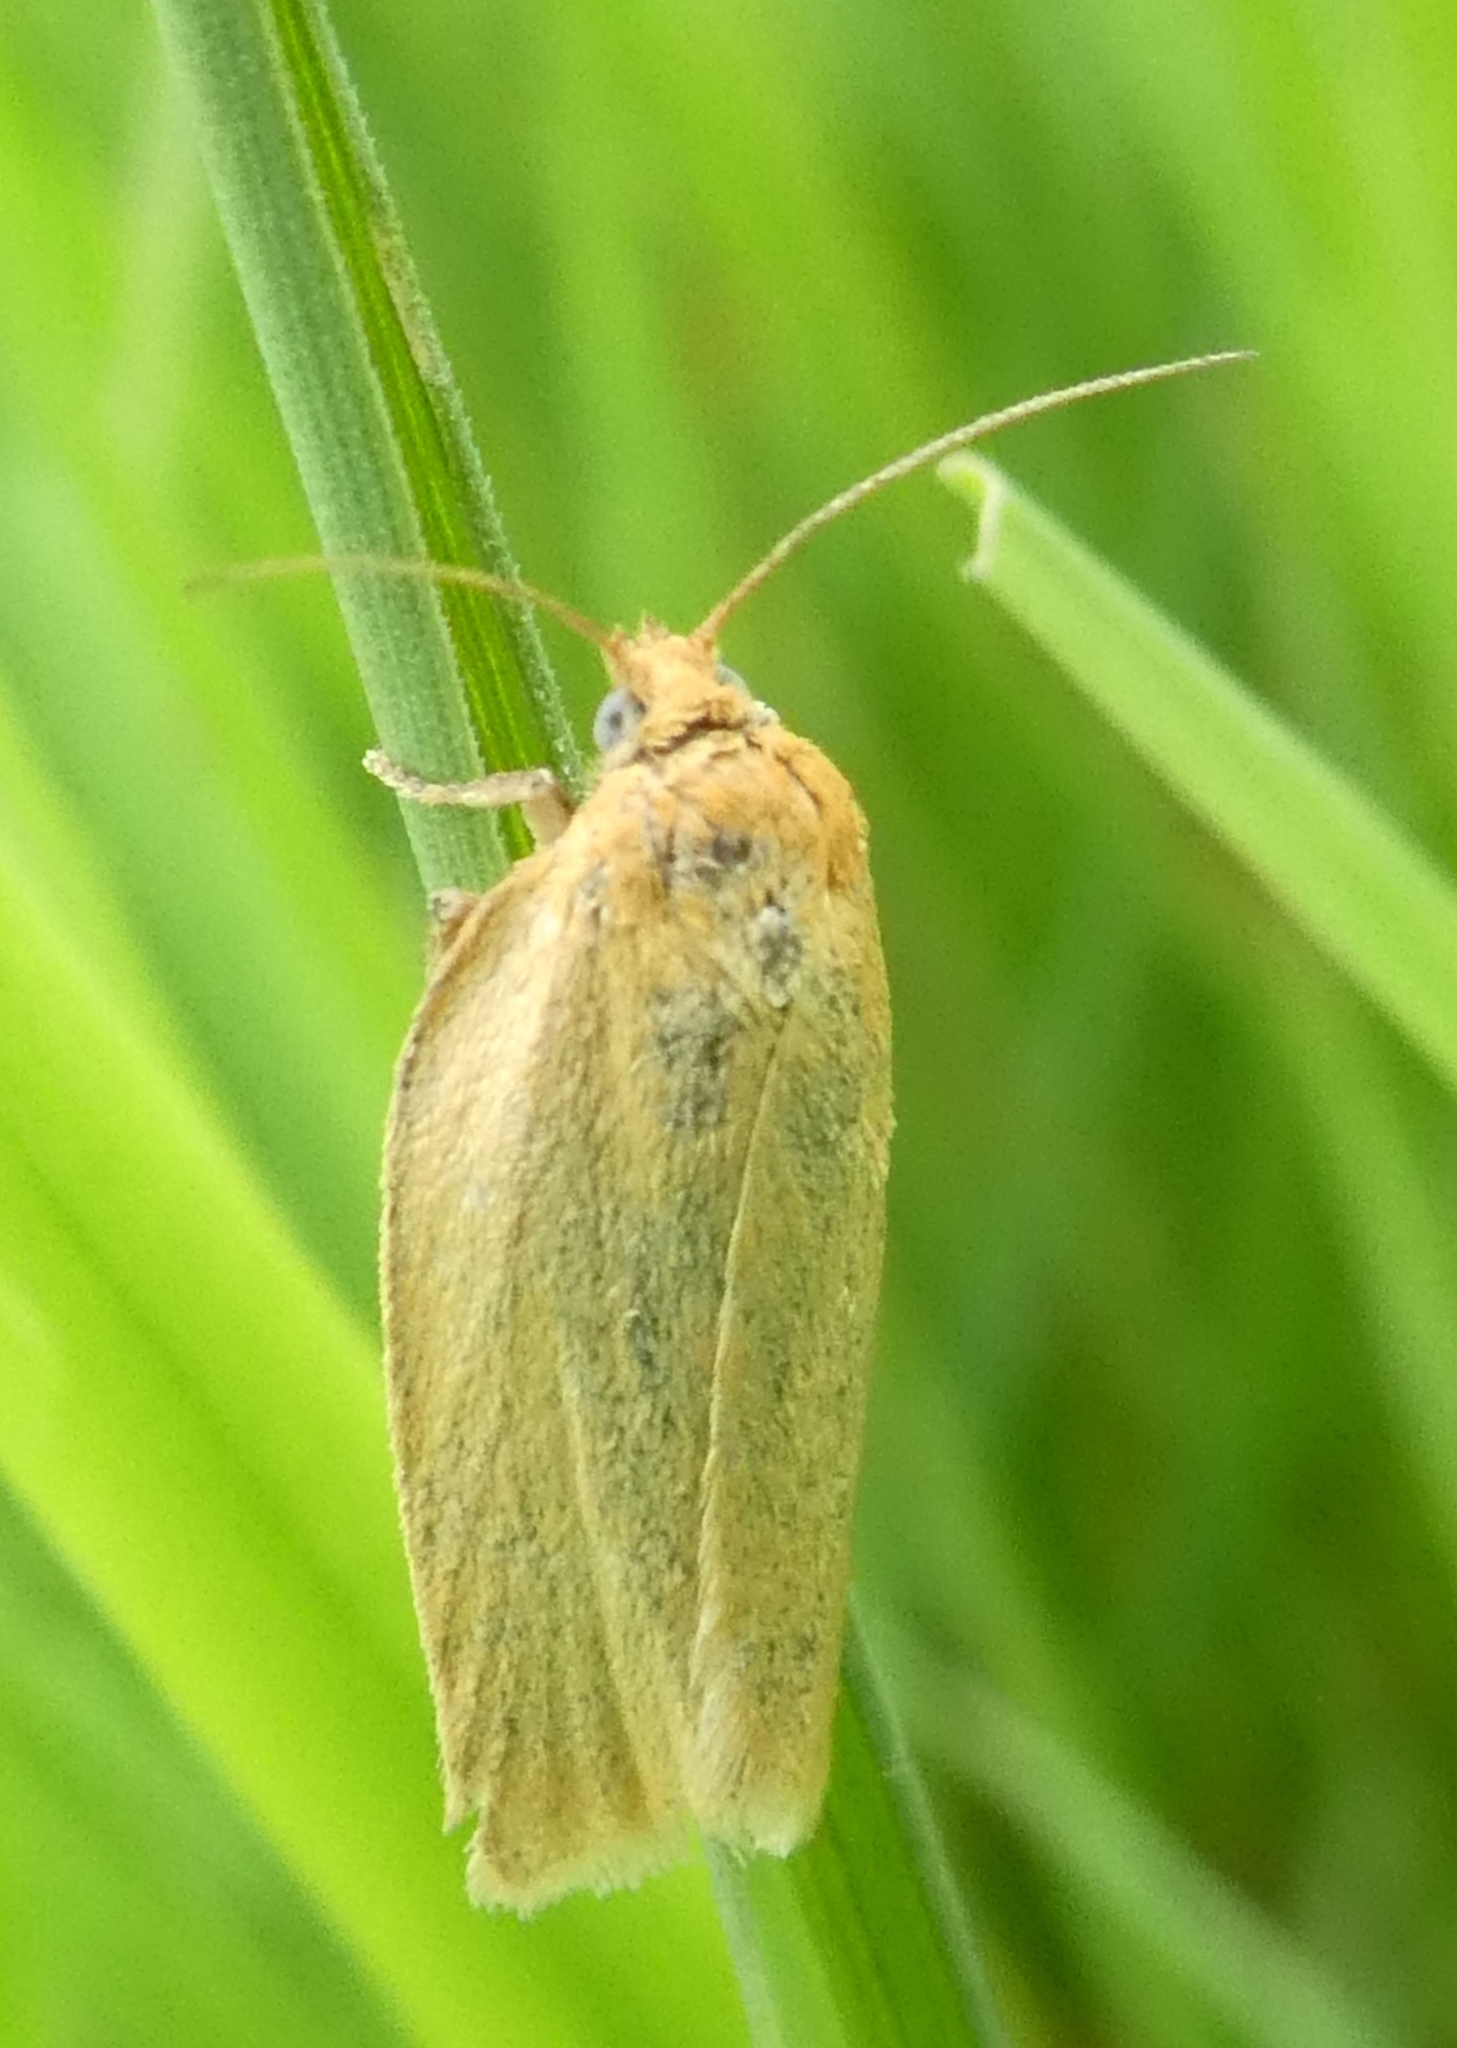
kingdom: Animalia
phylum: Arthropoda
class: Insecta
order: Lepidoptera
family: Tortricidae
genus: Aphelia
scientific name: Aphelia Zelotherses paleana
